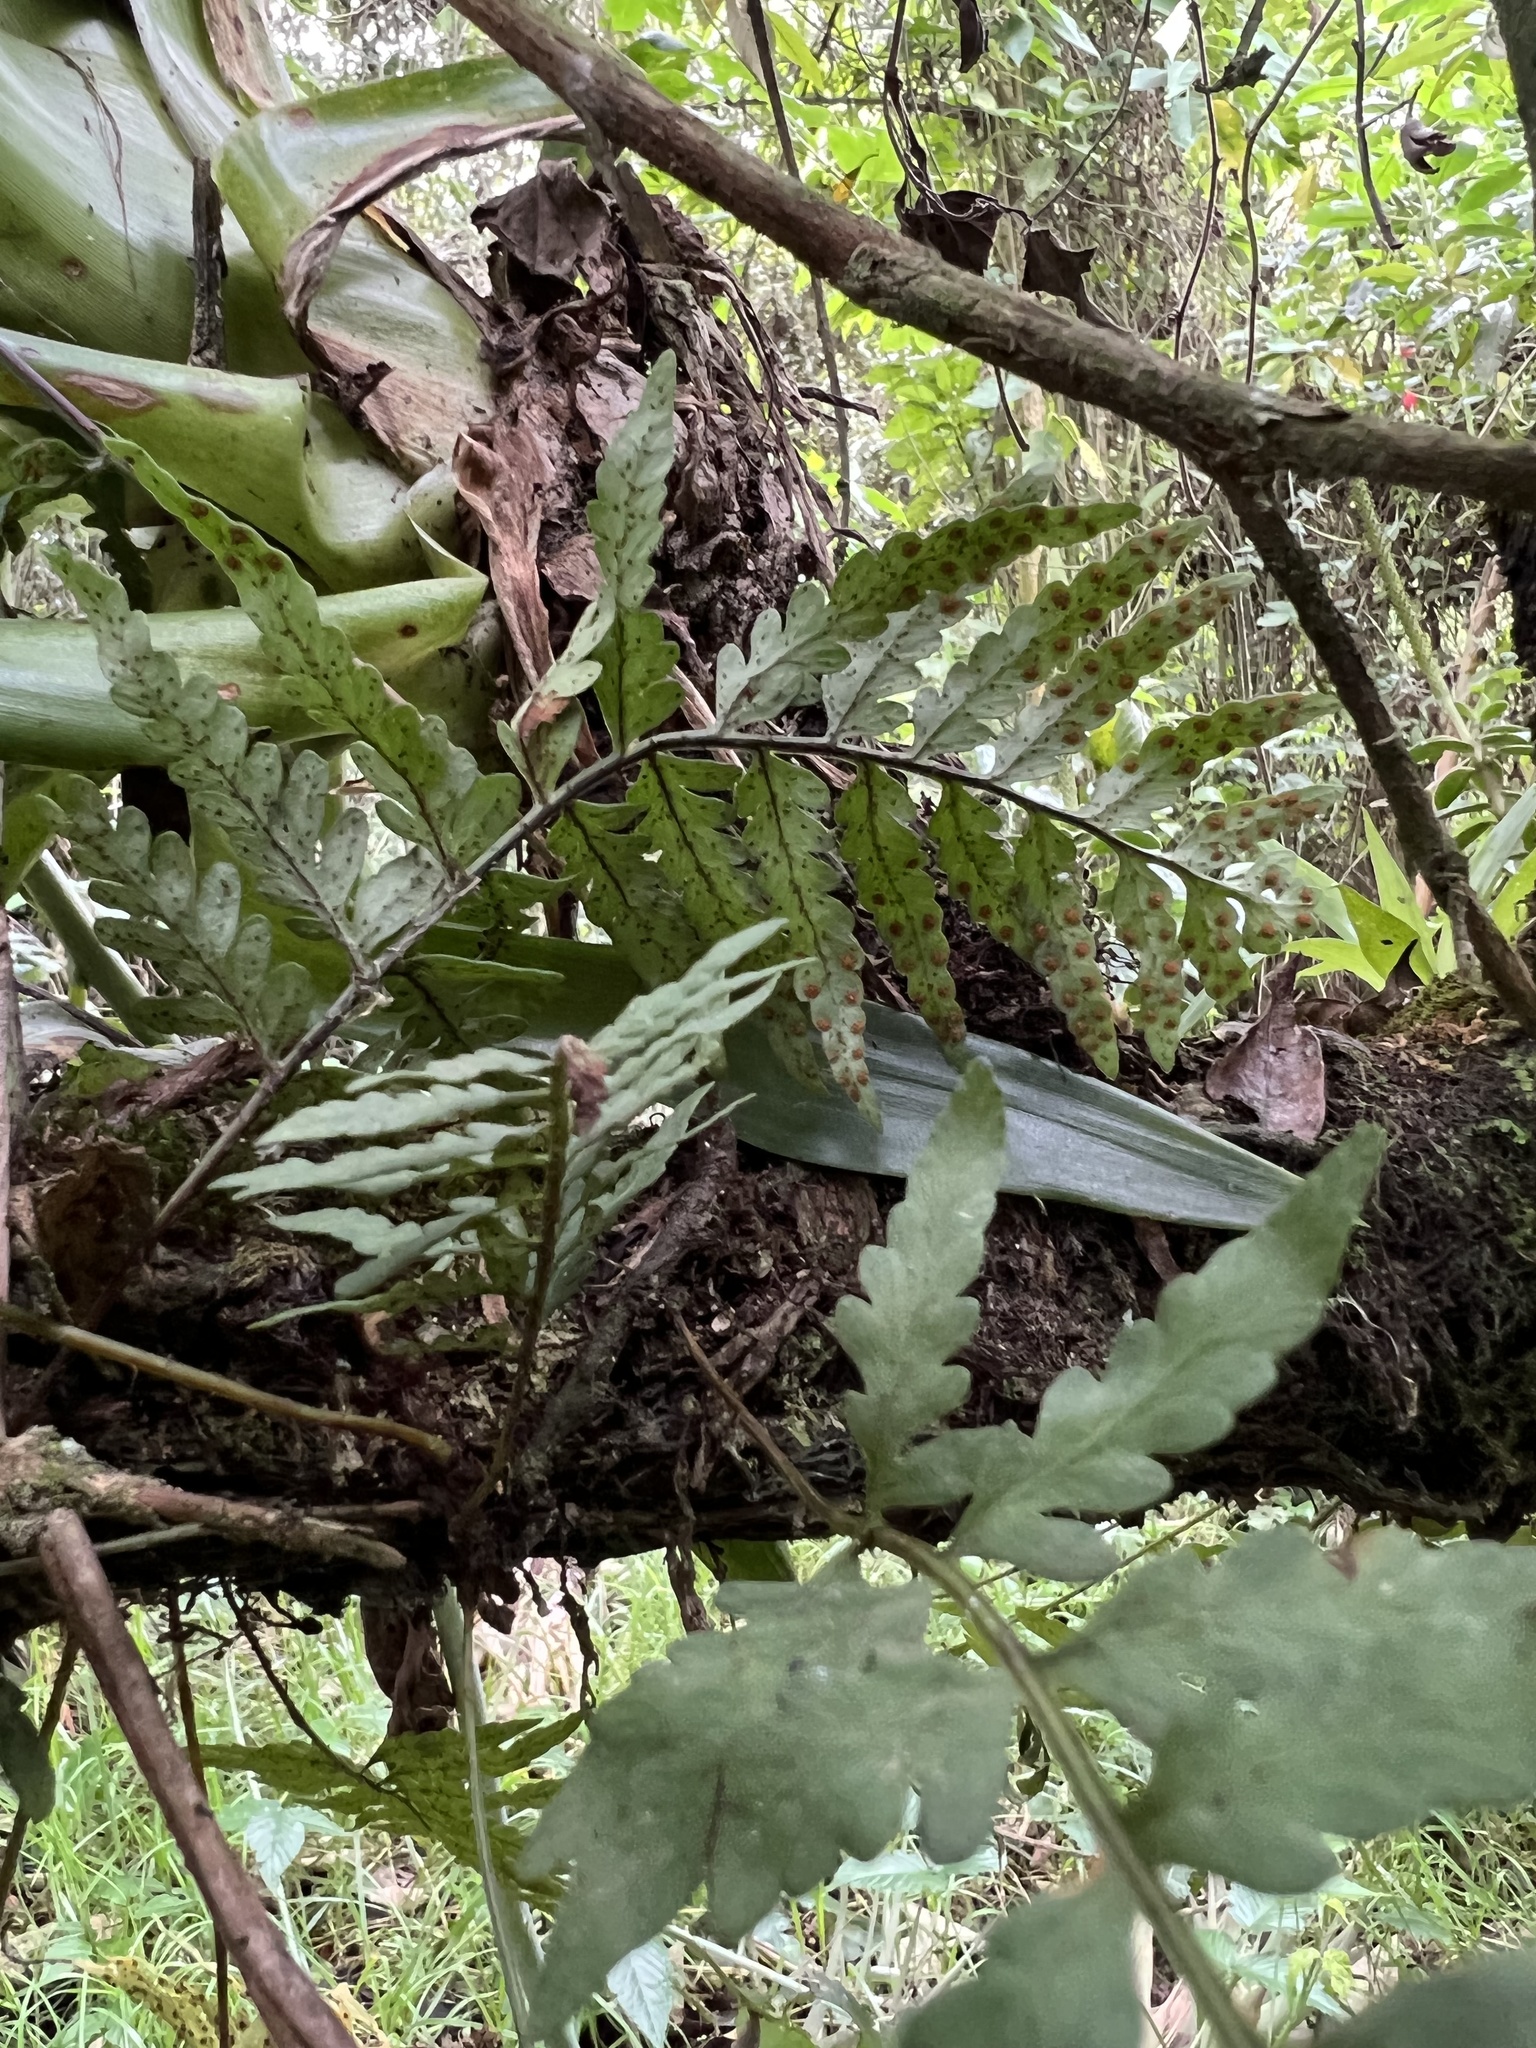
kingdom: Plantae
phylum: Tracheophyta
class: Polypodiopsida
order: Polypodiales
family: Polypodiaceae
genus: Pleopeltis
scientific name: Pleopeltis murora
